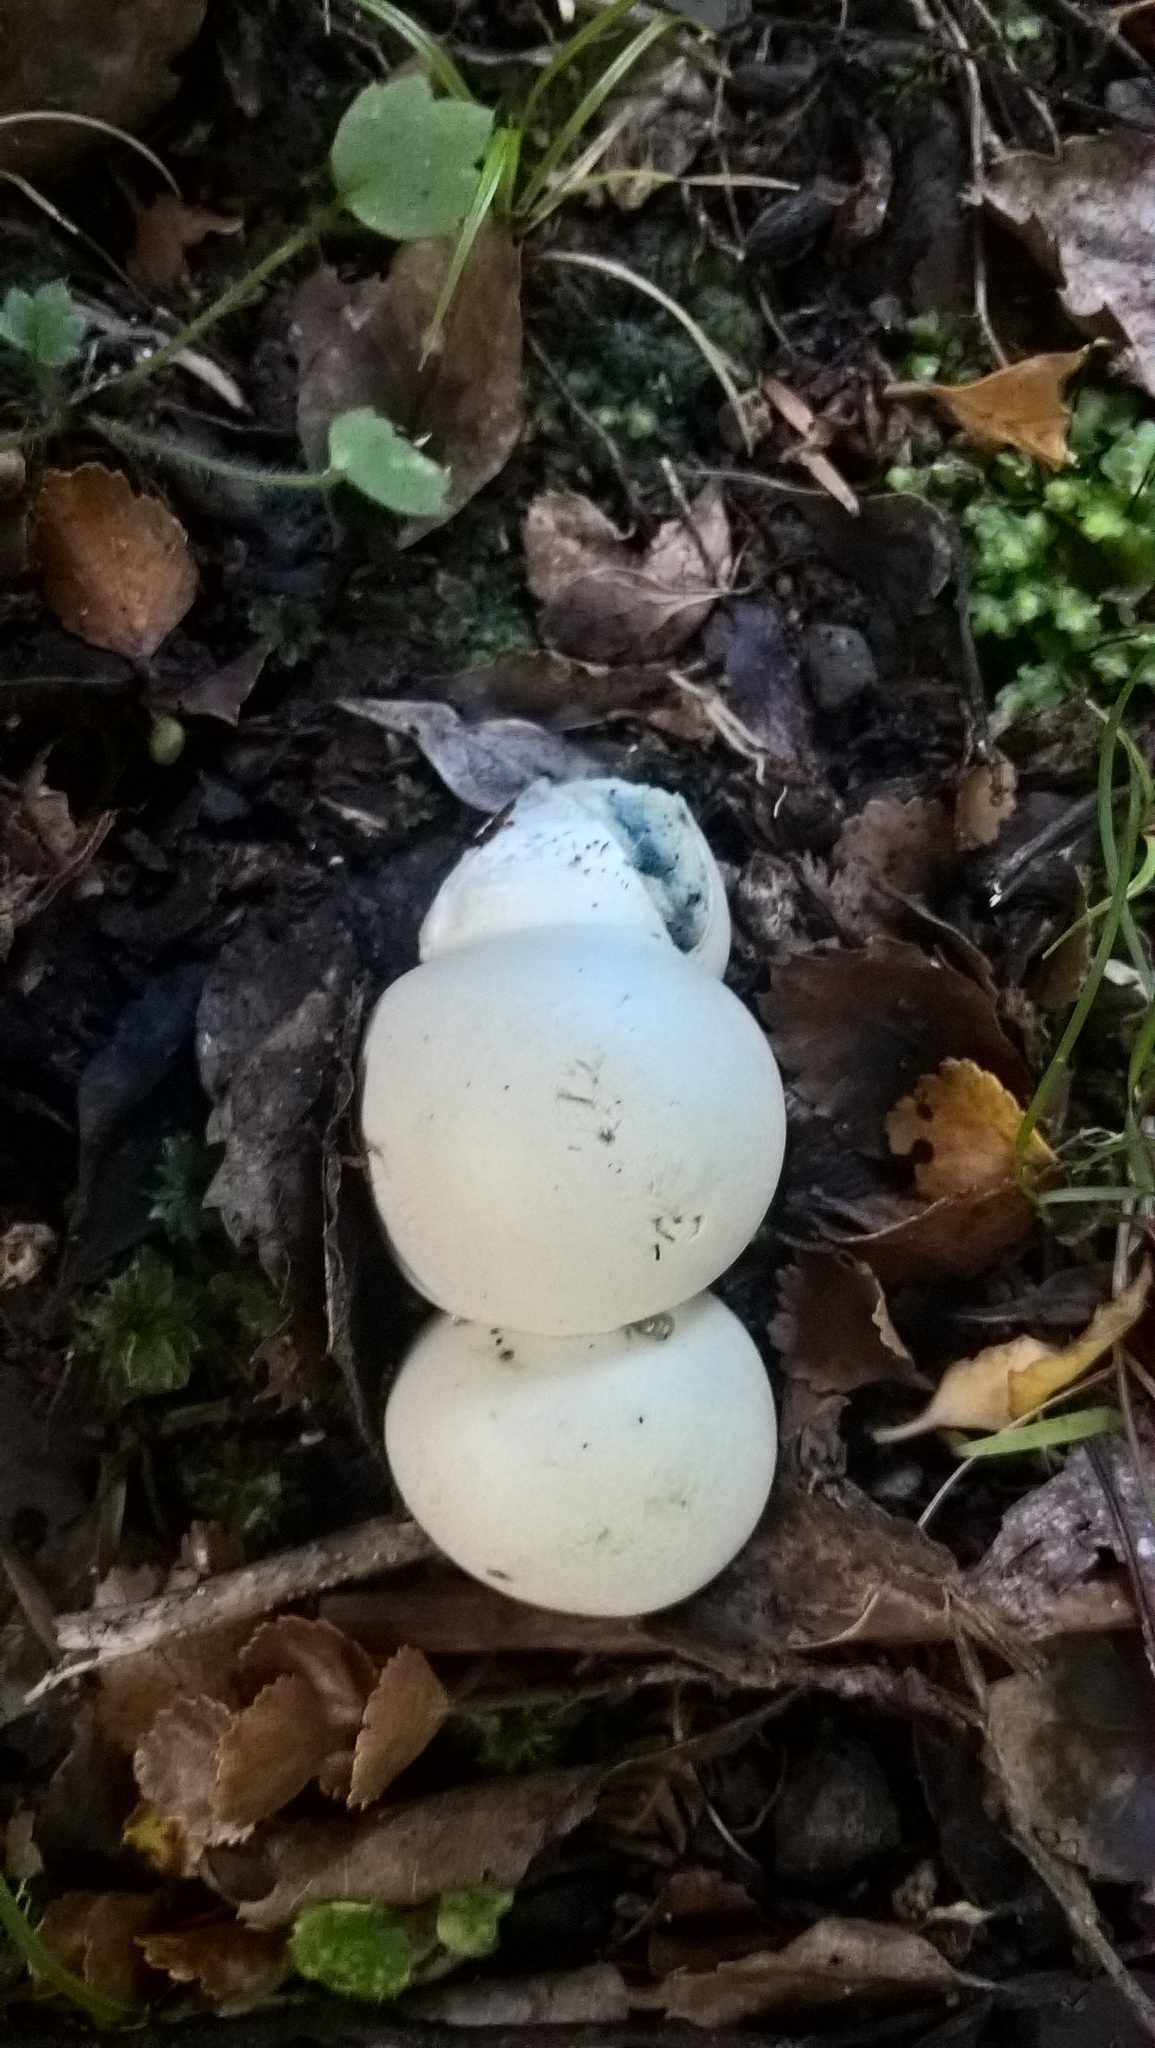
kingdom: Fungi
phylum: Basidiomycota
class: Agaricomycetes
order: Boletales
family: Boletaceae
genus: Leccinum
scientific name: Leccinum pachyderme
